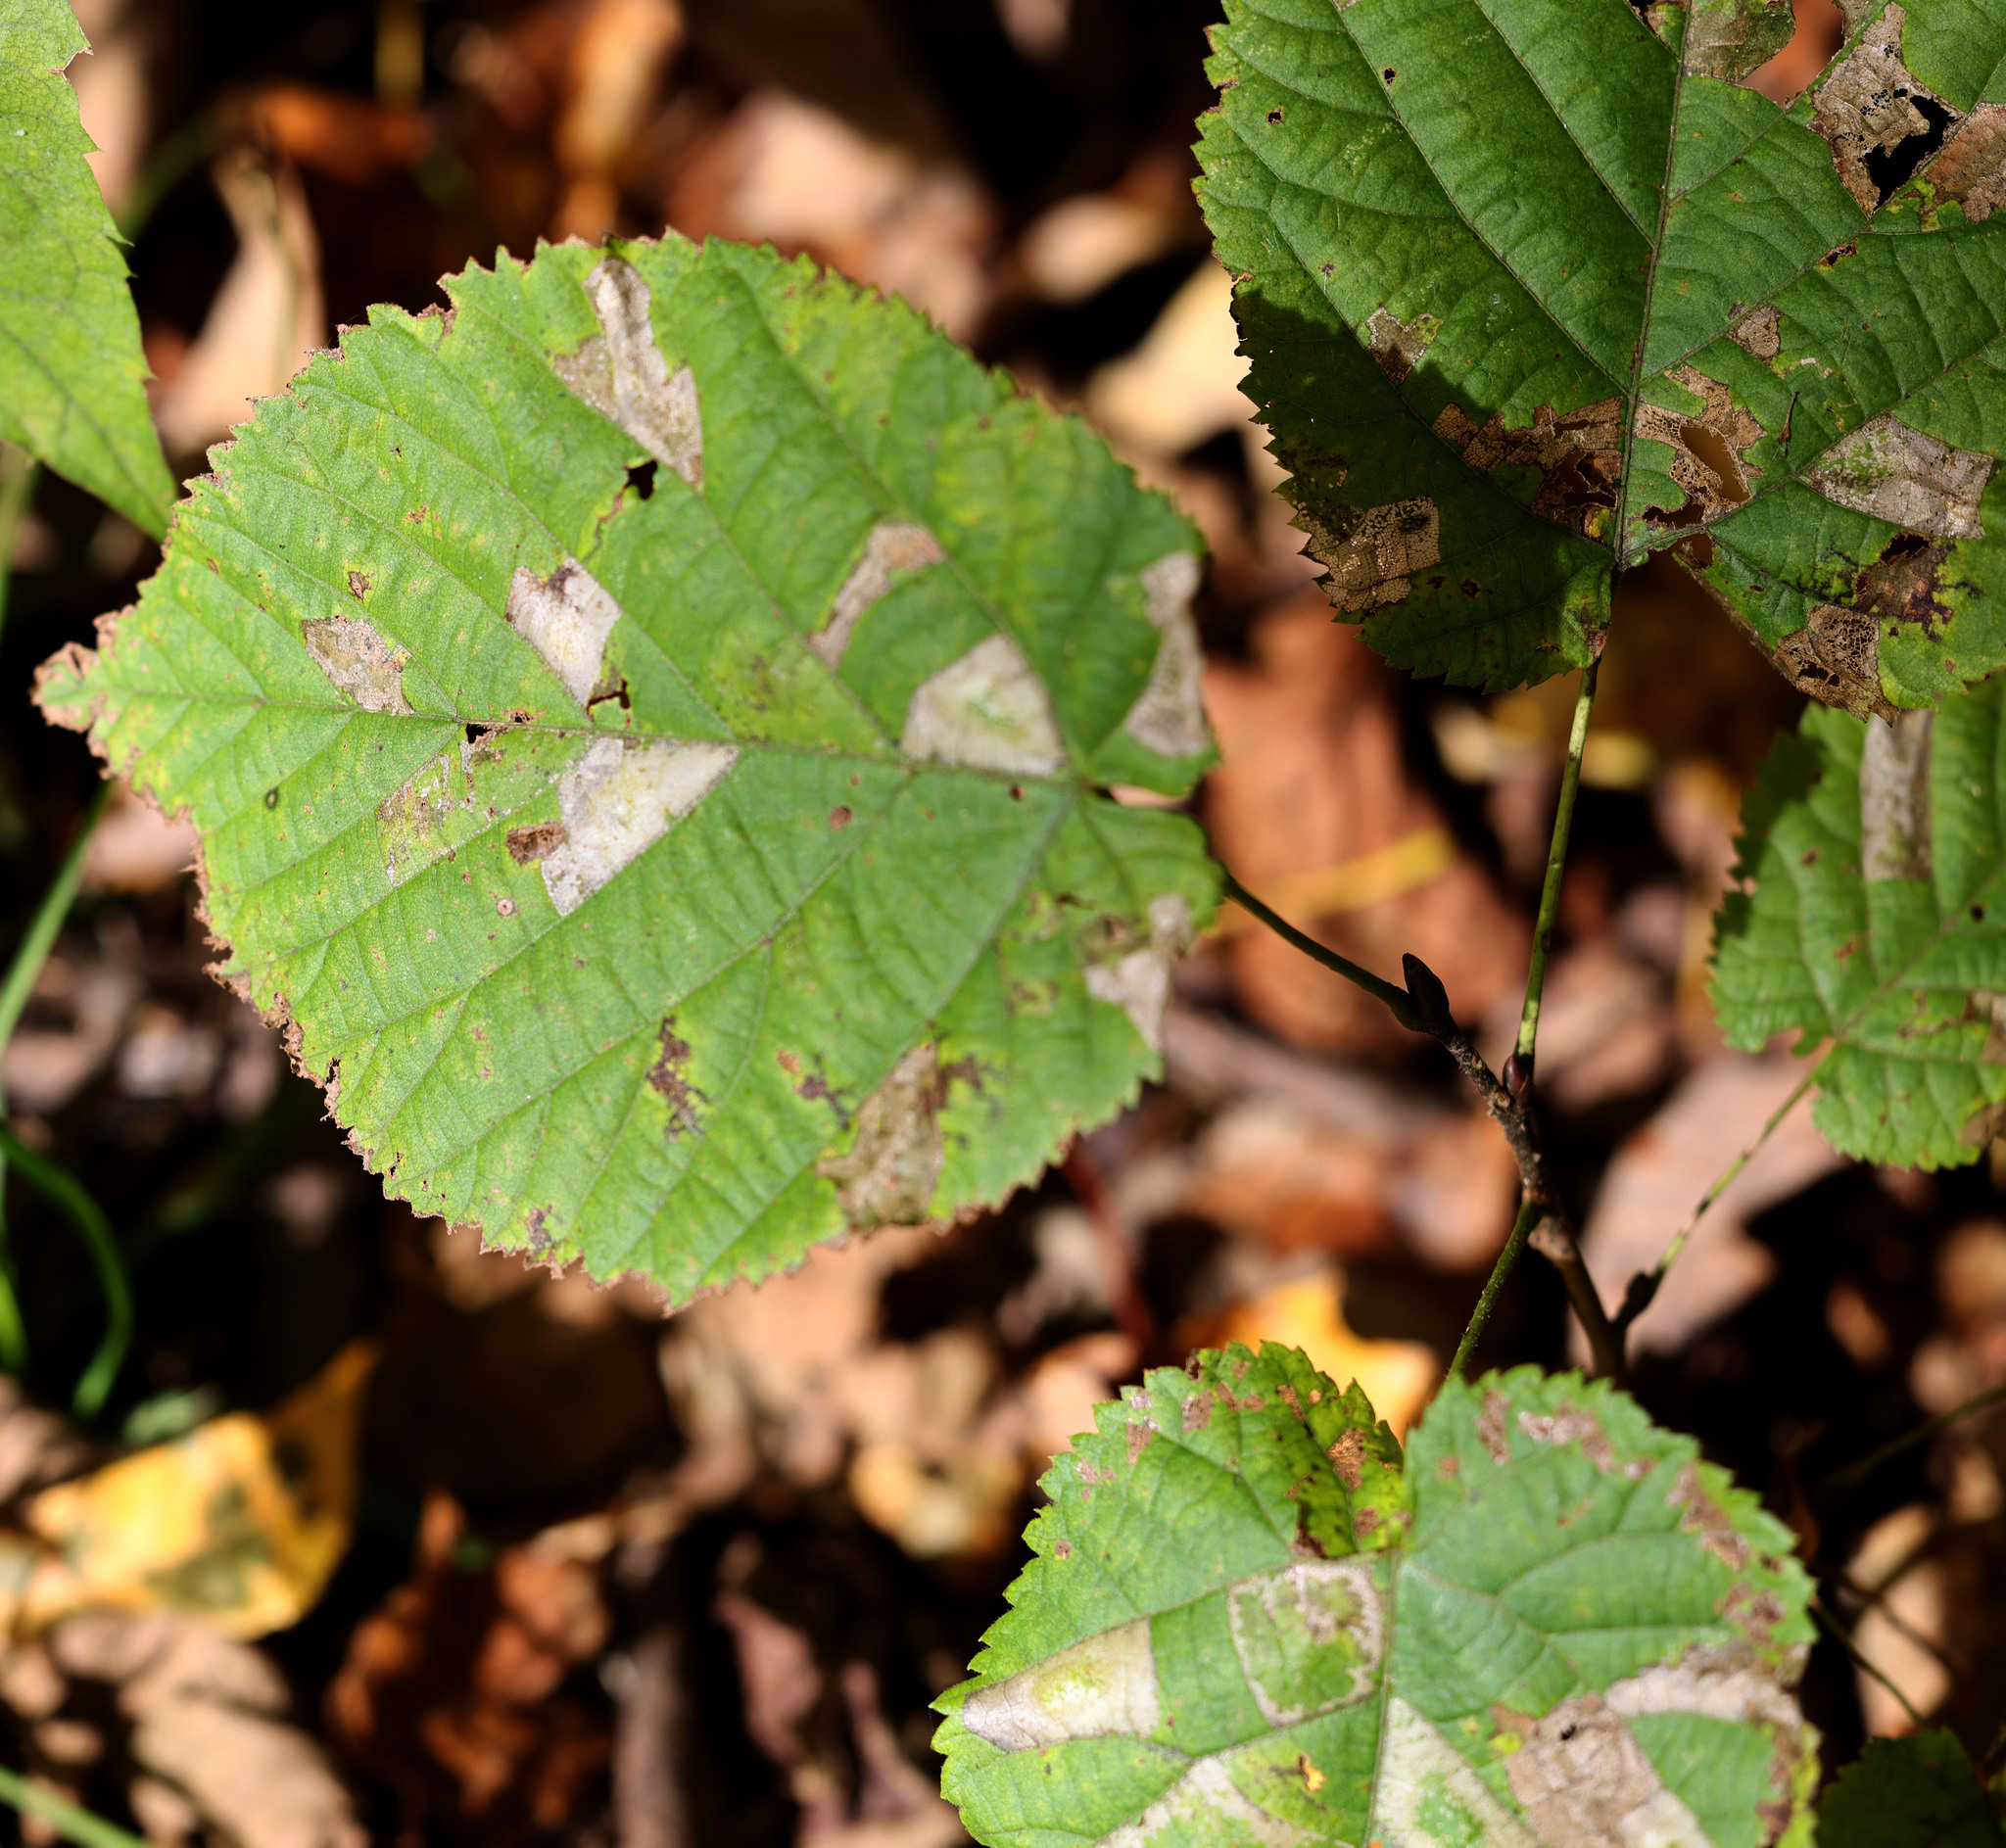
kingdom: Plantae
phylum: Tracheophyta
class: Magnoliopsida
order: Malvales
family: Malvaceae
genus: Tilia
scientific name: Tilia americana
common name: Basswood
